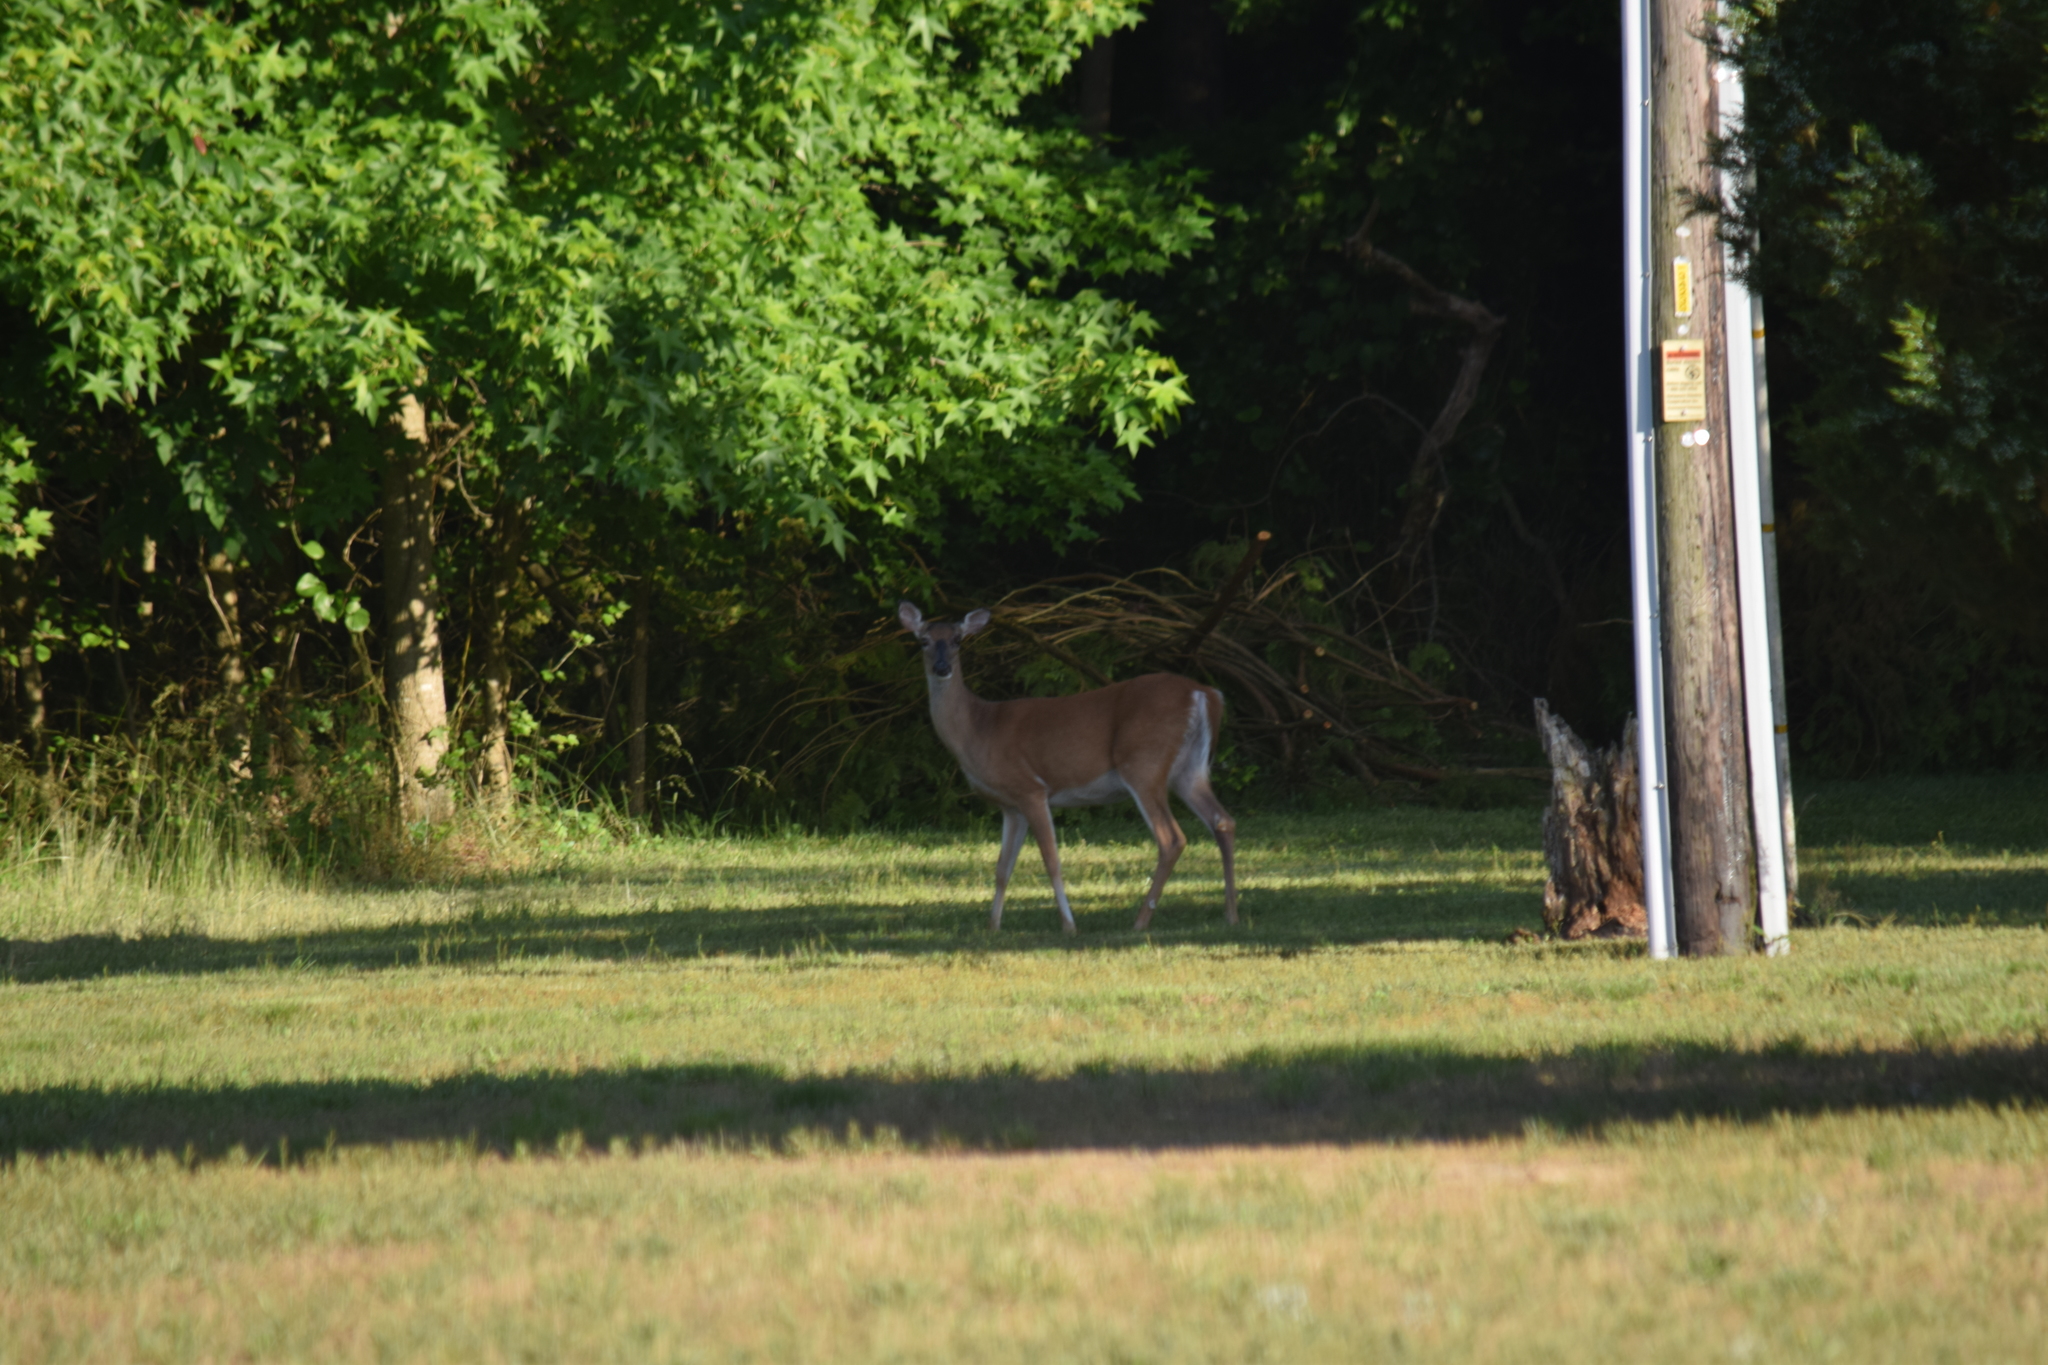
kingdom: Animalia
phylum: Chordata
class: Mammalia
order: Artiodactyla
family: Cervidae
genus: Odocoileus
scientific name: Odocoileus virginianus
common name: White-tailed deer
